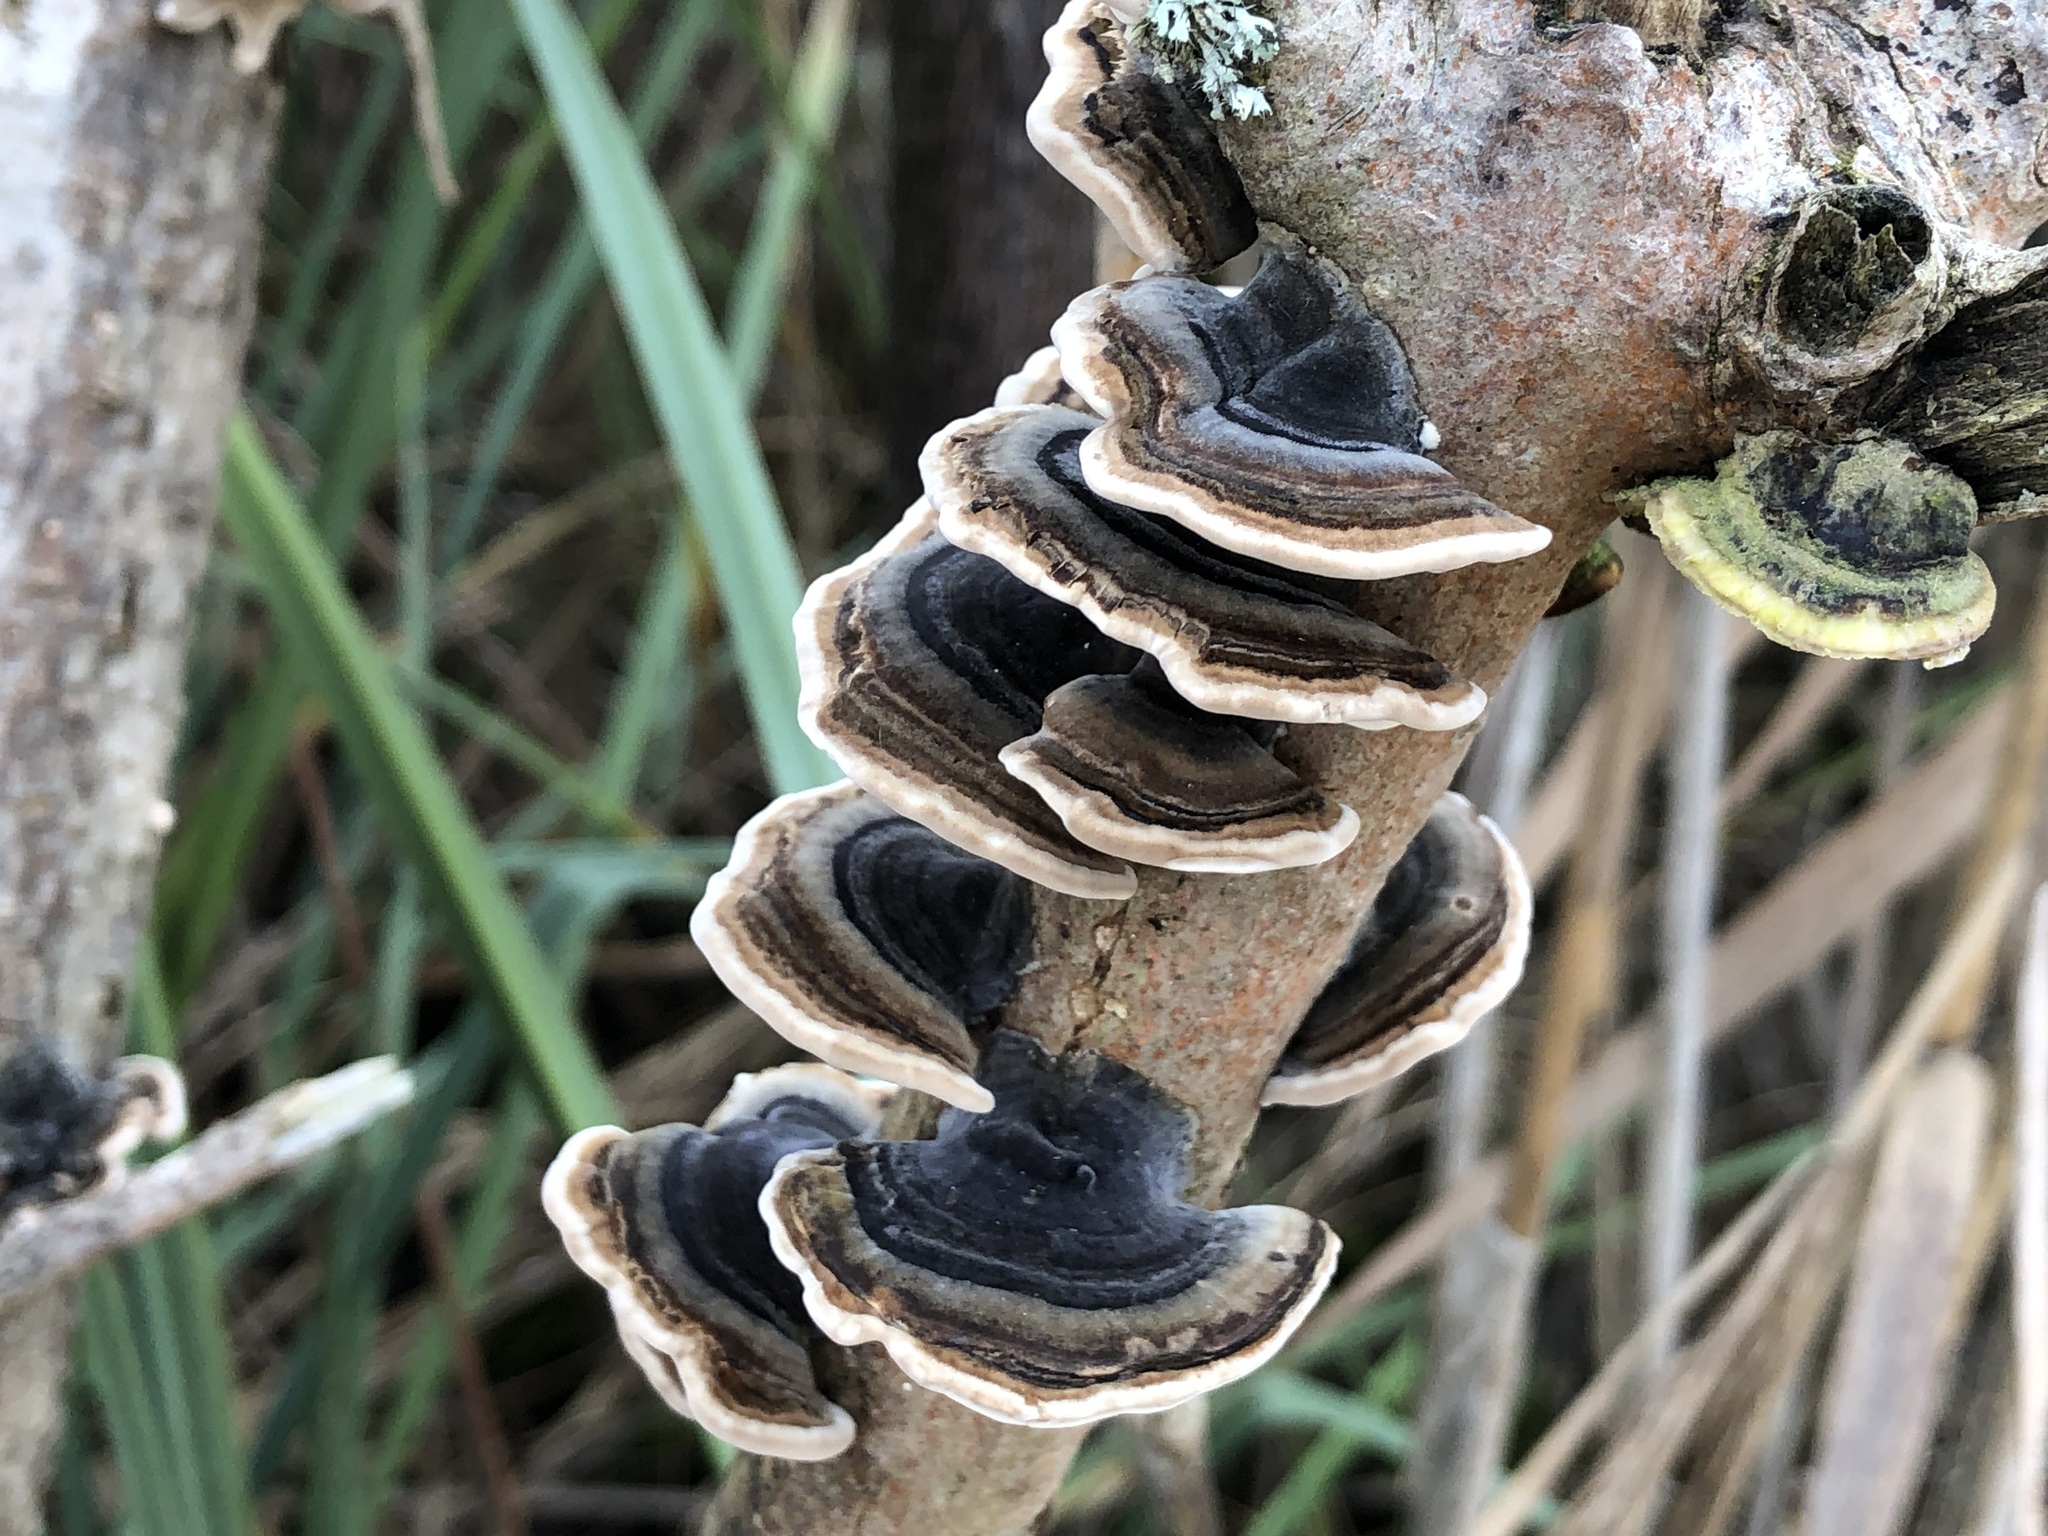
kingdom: Fungi
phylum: Basidiomycota
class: Agaricomycetes
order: Polyporales
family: Polyporaceae
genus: Trametes
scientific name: Trametes versicolor
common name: Turkeytail
